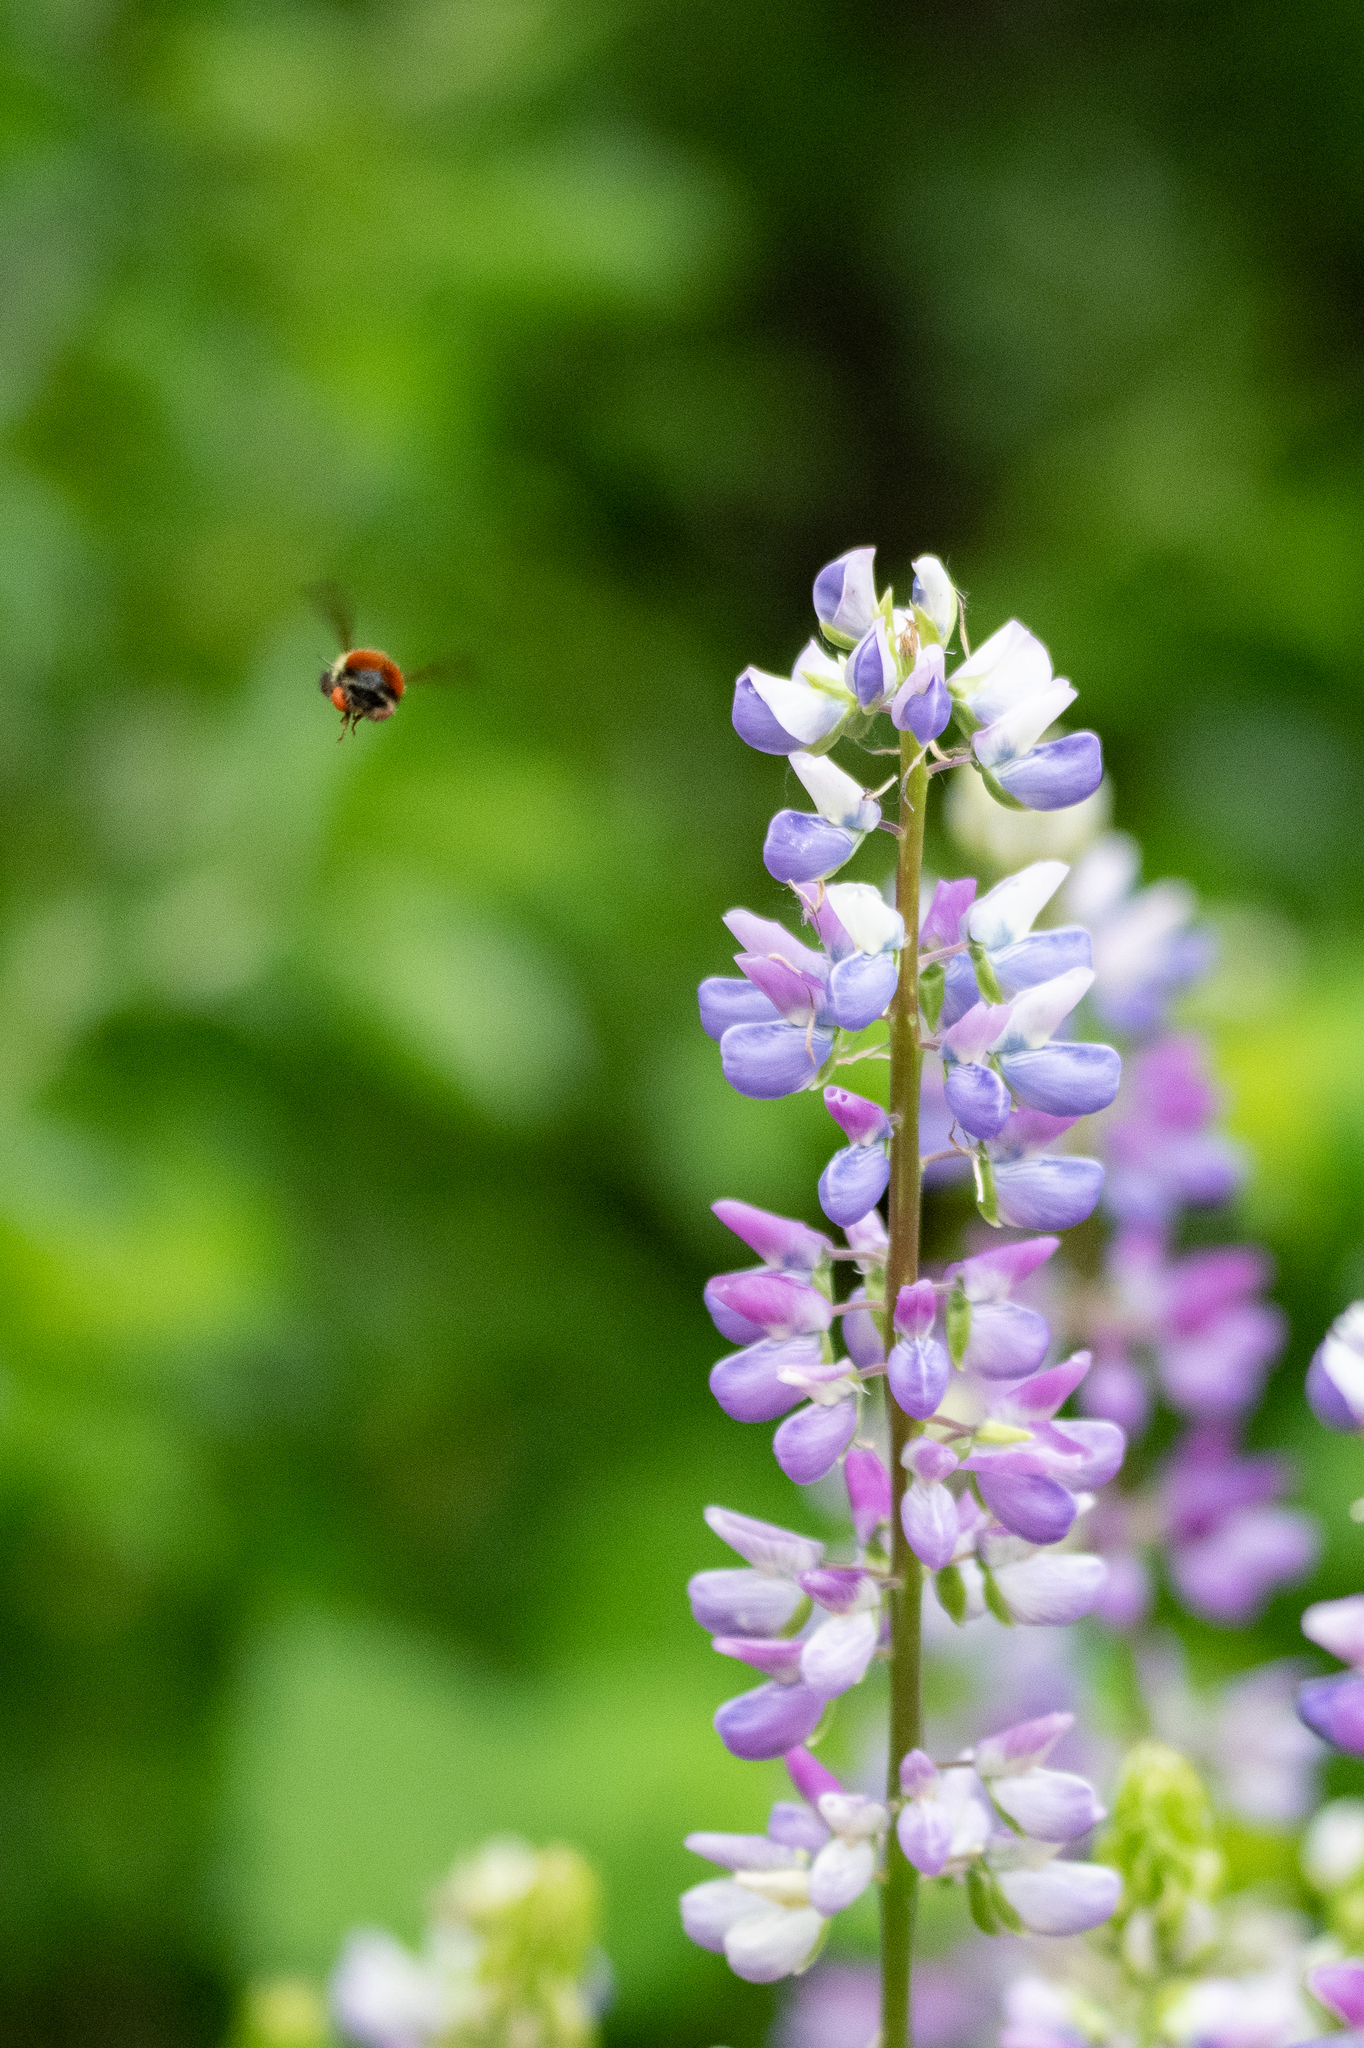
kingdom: Animalia
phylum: Arthropoda
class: Insecta
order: Hymenoptera
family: Apidae
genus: Bombus
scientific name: Bombus melanopygus
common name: Black tail bumble bee
